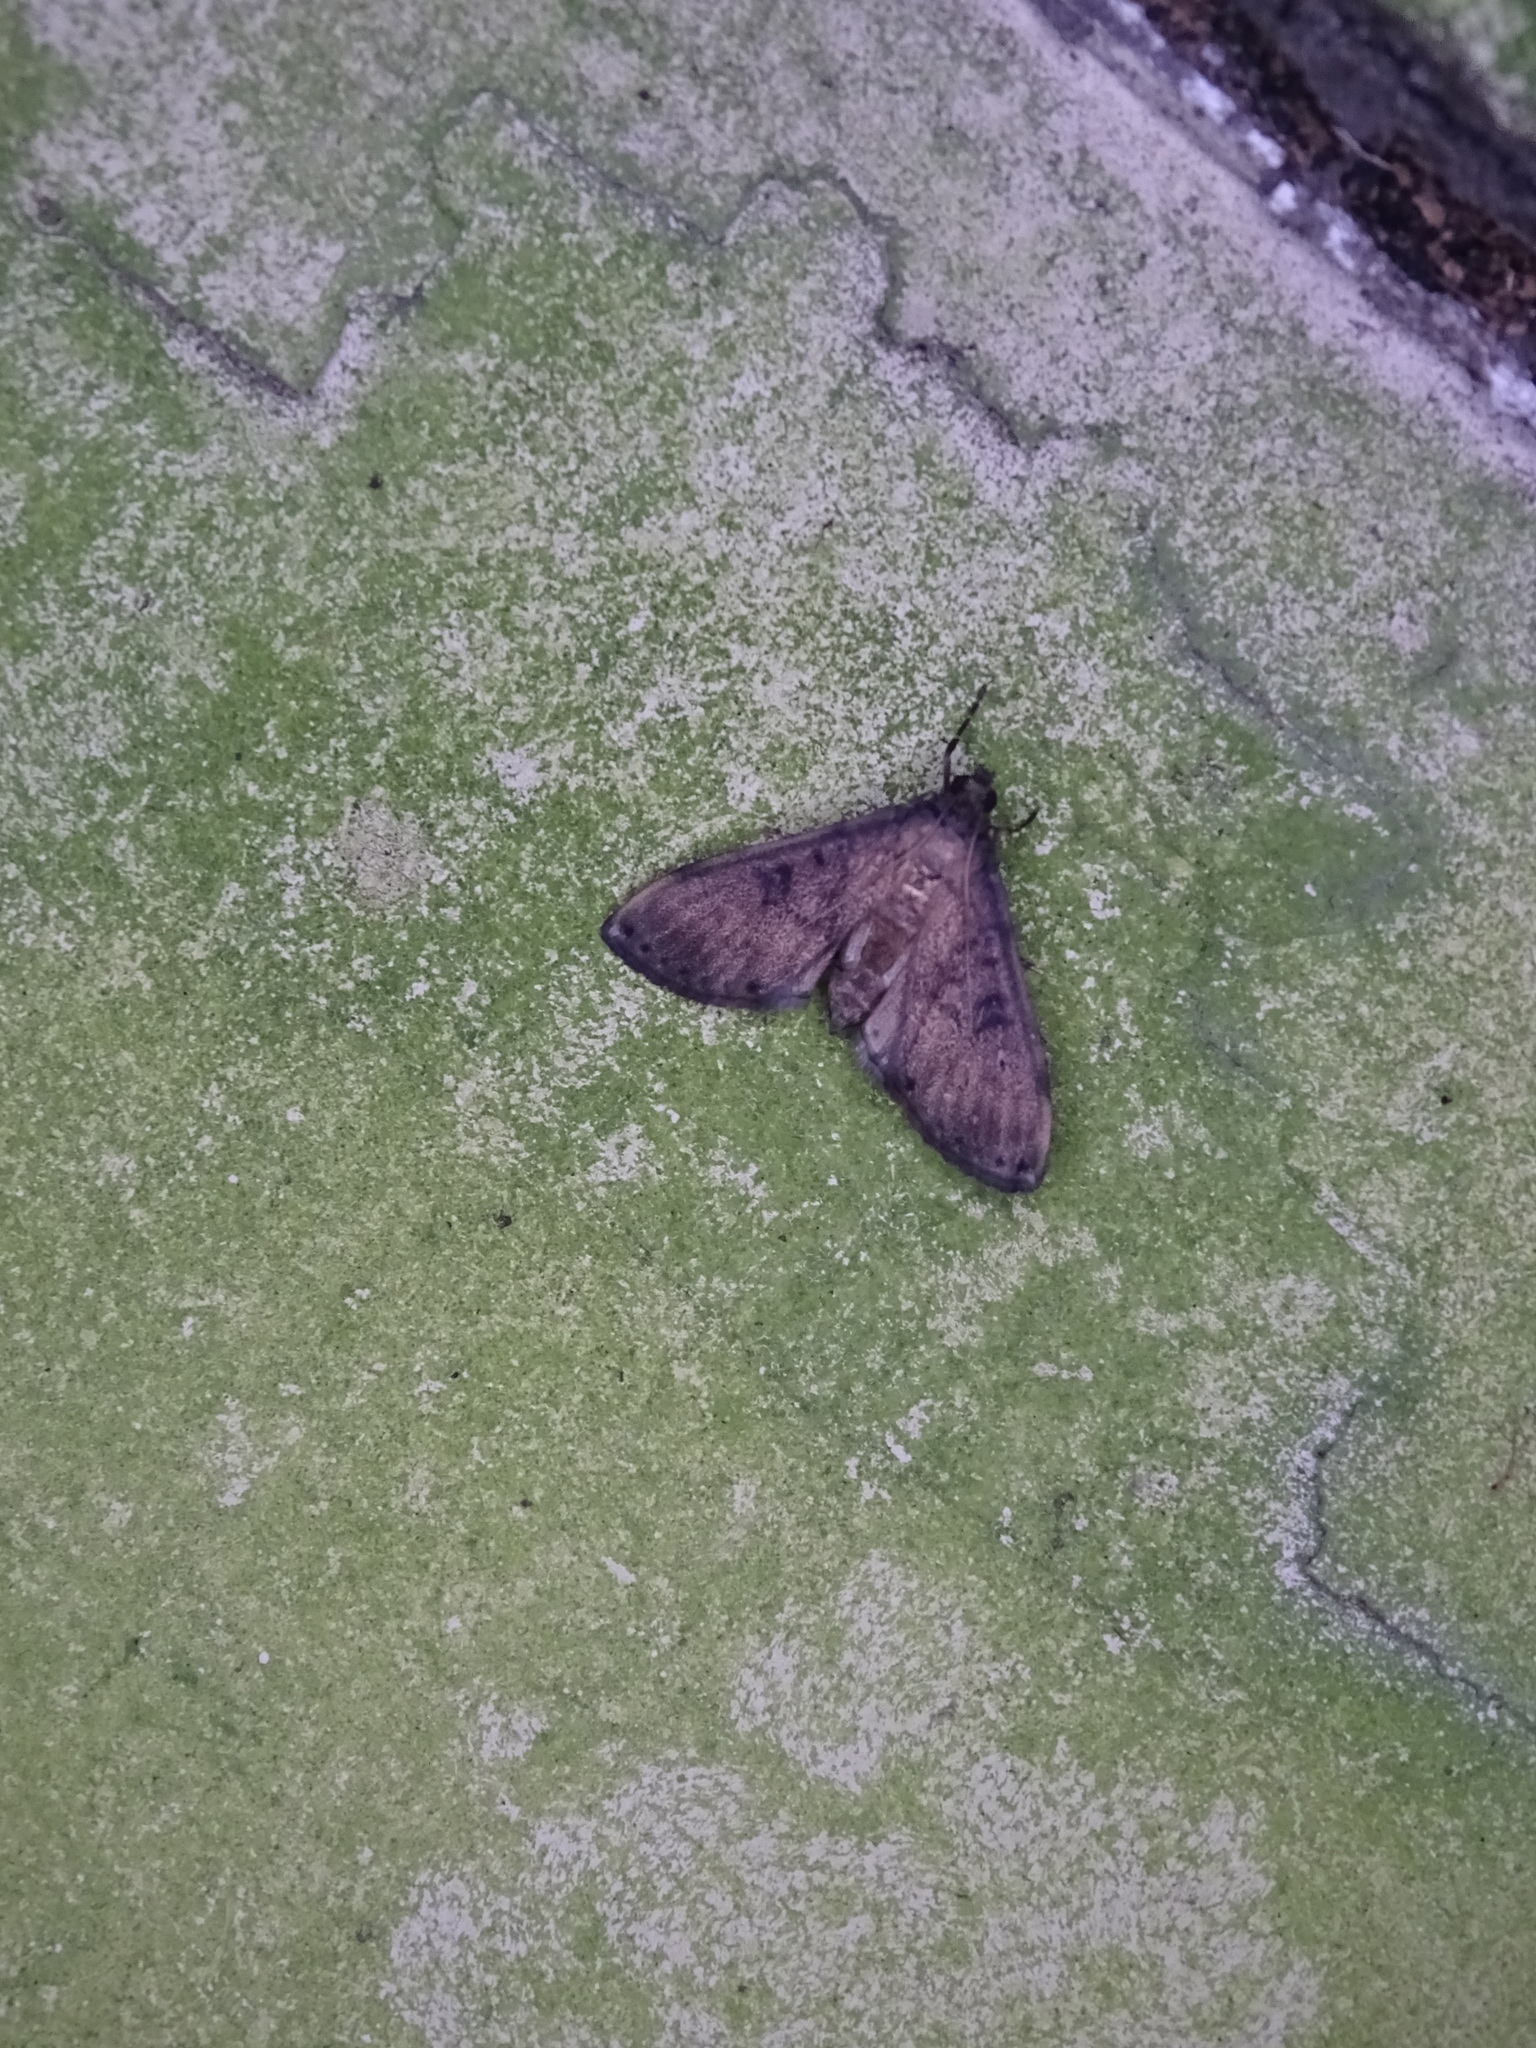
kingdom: Animalia
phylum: Arthropoda
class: Insecta
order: Lepidoptera
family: Crambidae
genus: Nacoleia
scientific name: Nacoleia charesalis
